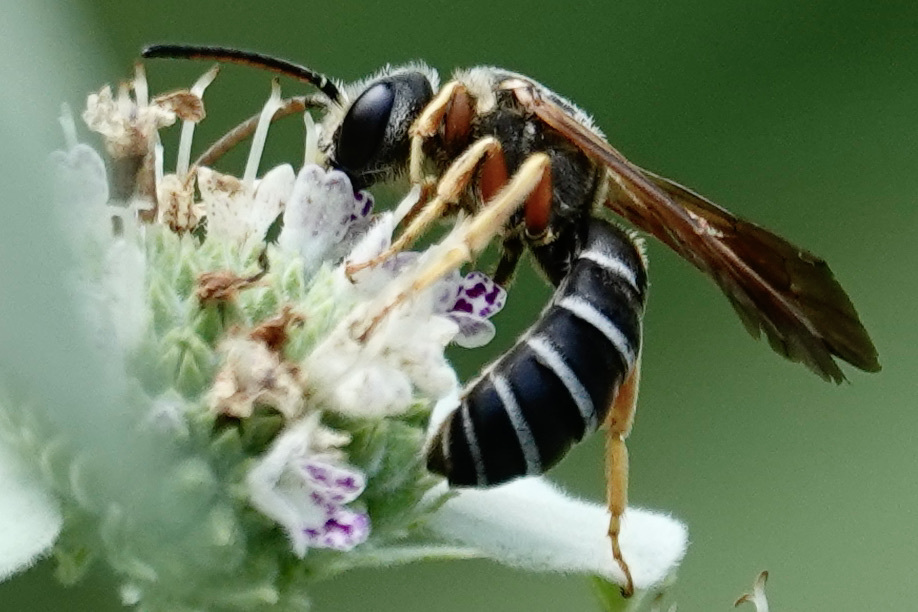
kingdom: Animalia
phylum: Arthropoda
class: Insecta
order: Hymenoptera
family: Halictidae
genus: Halictus
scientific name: Halictus parallelus
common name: Parallel-striped sweat bee
